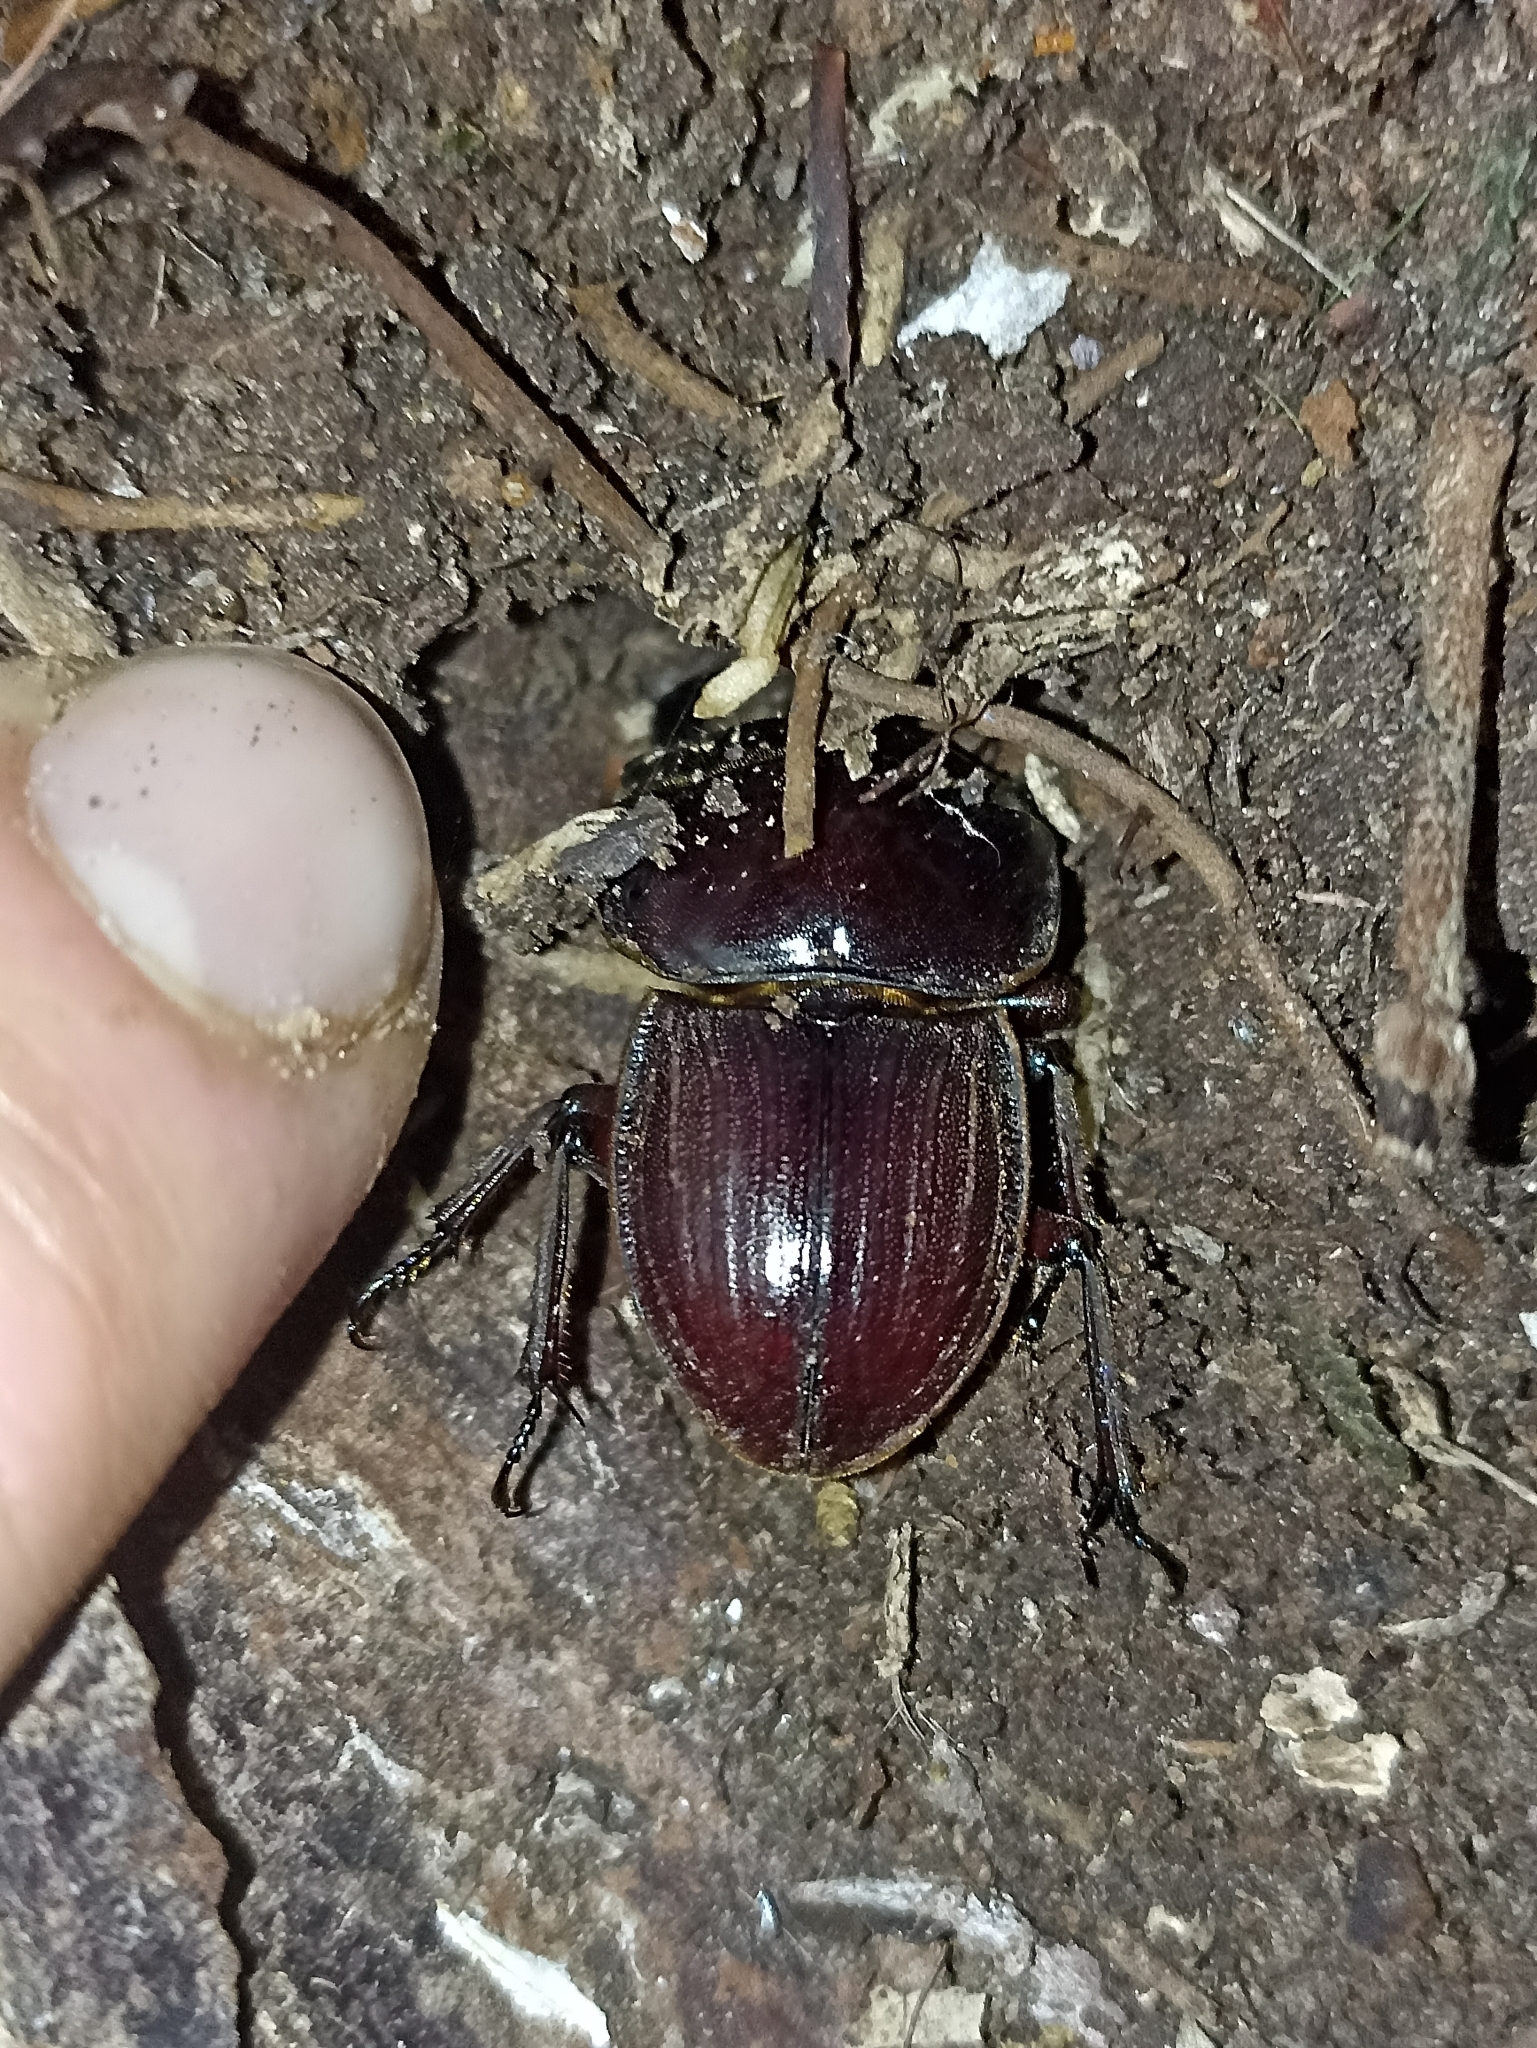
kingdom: Animalia
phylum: Arthropoda
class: Insecta
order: Coleoptera
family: Lucanidae
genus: Geodorcus
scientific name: Geodorcus helmsi
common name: Helm's stag beetle
